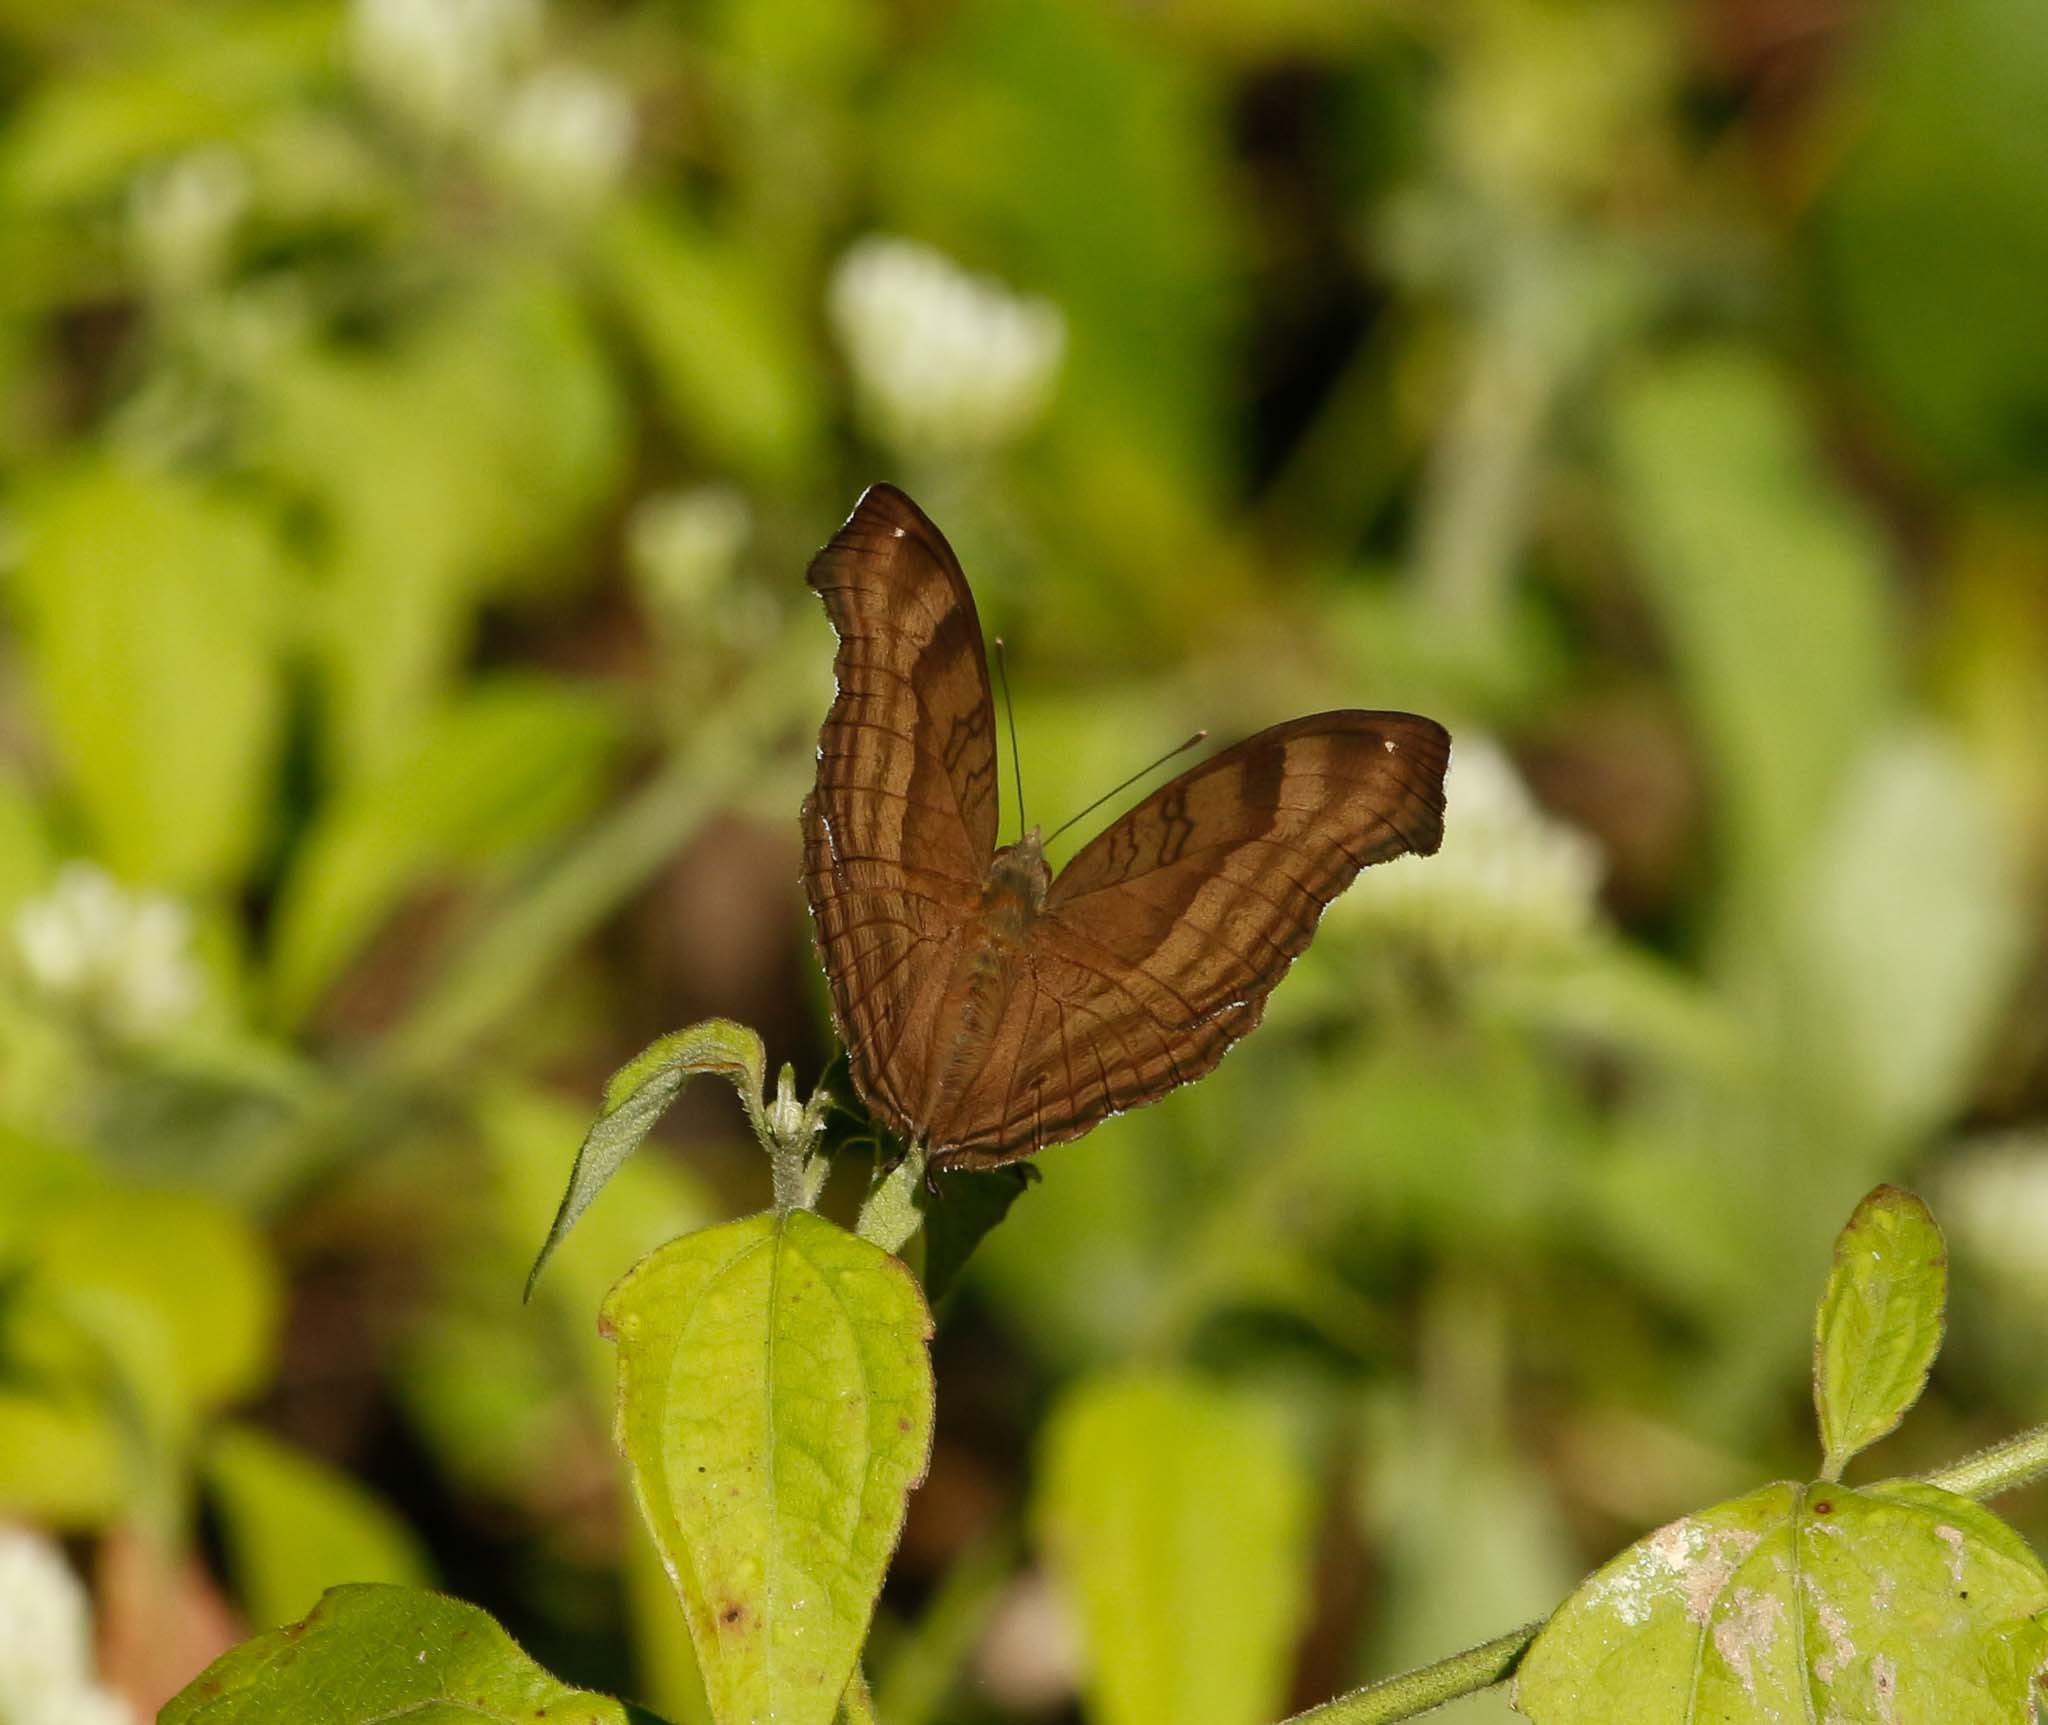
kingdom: Animalia
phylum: Arthropoda
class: Insecta
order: Lepidoptera
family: Nymphalidae
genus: Junonia
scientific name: Junonia iphita
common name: Chocolate pansy
